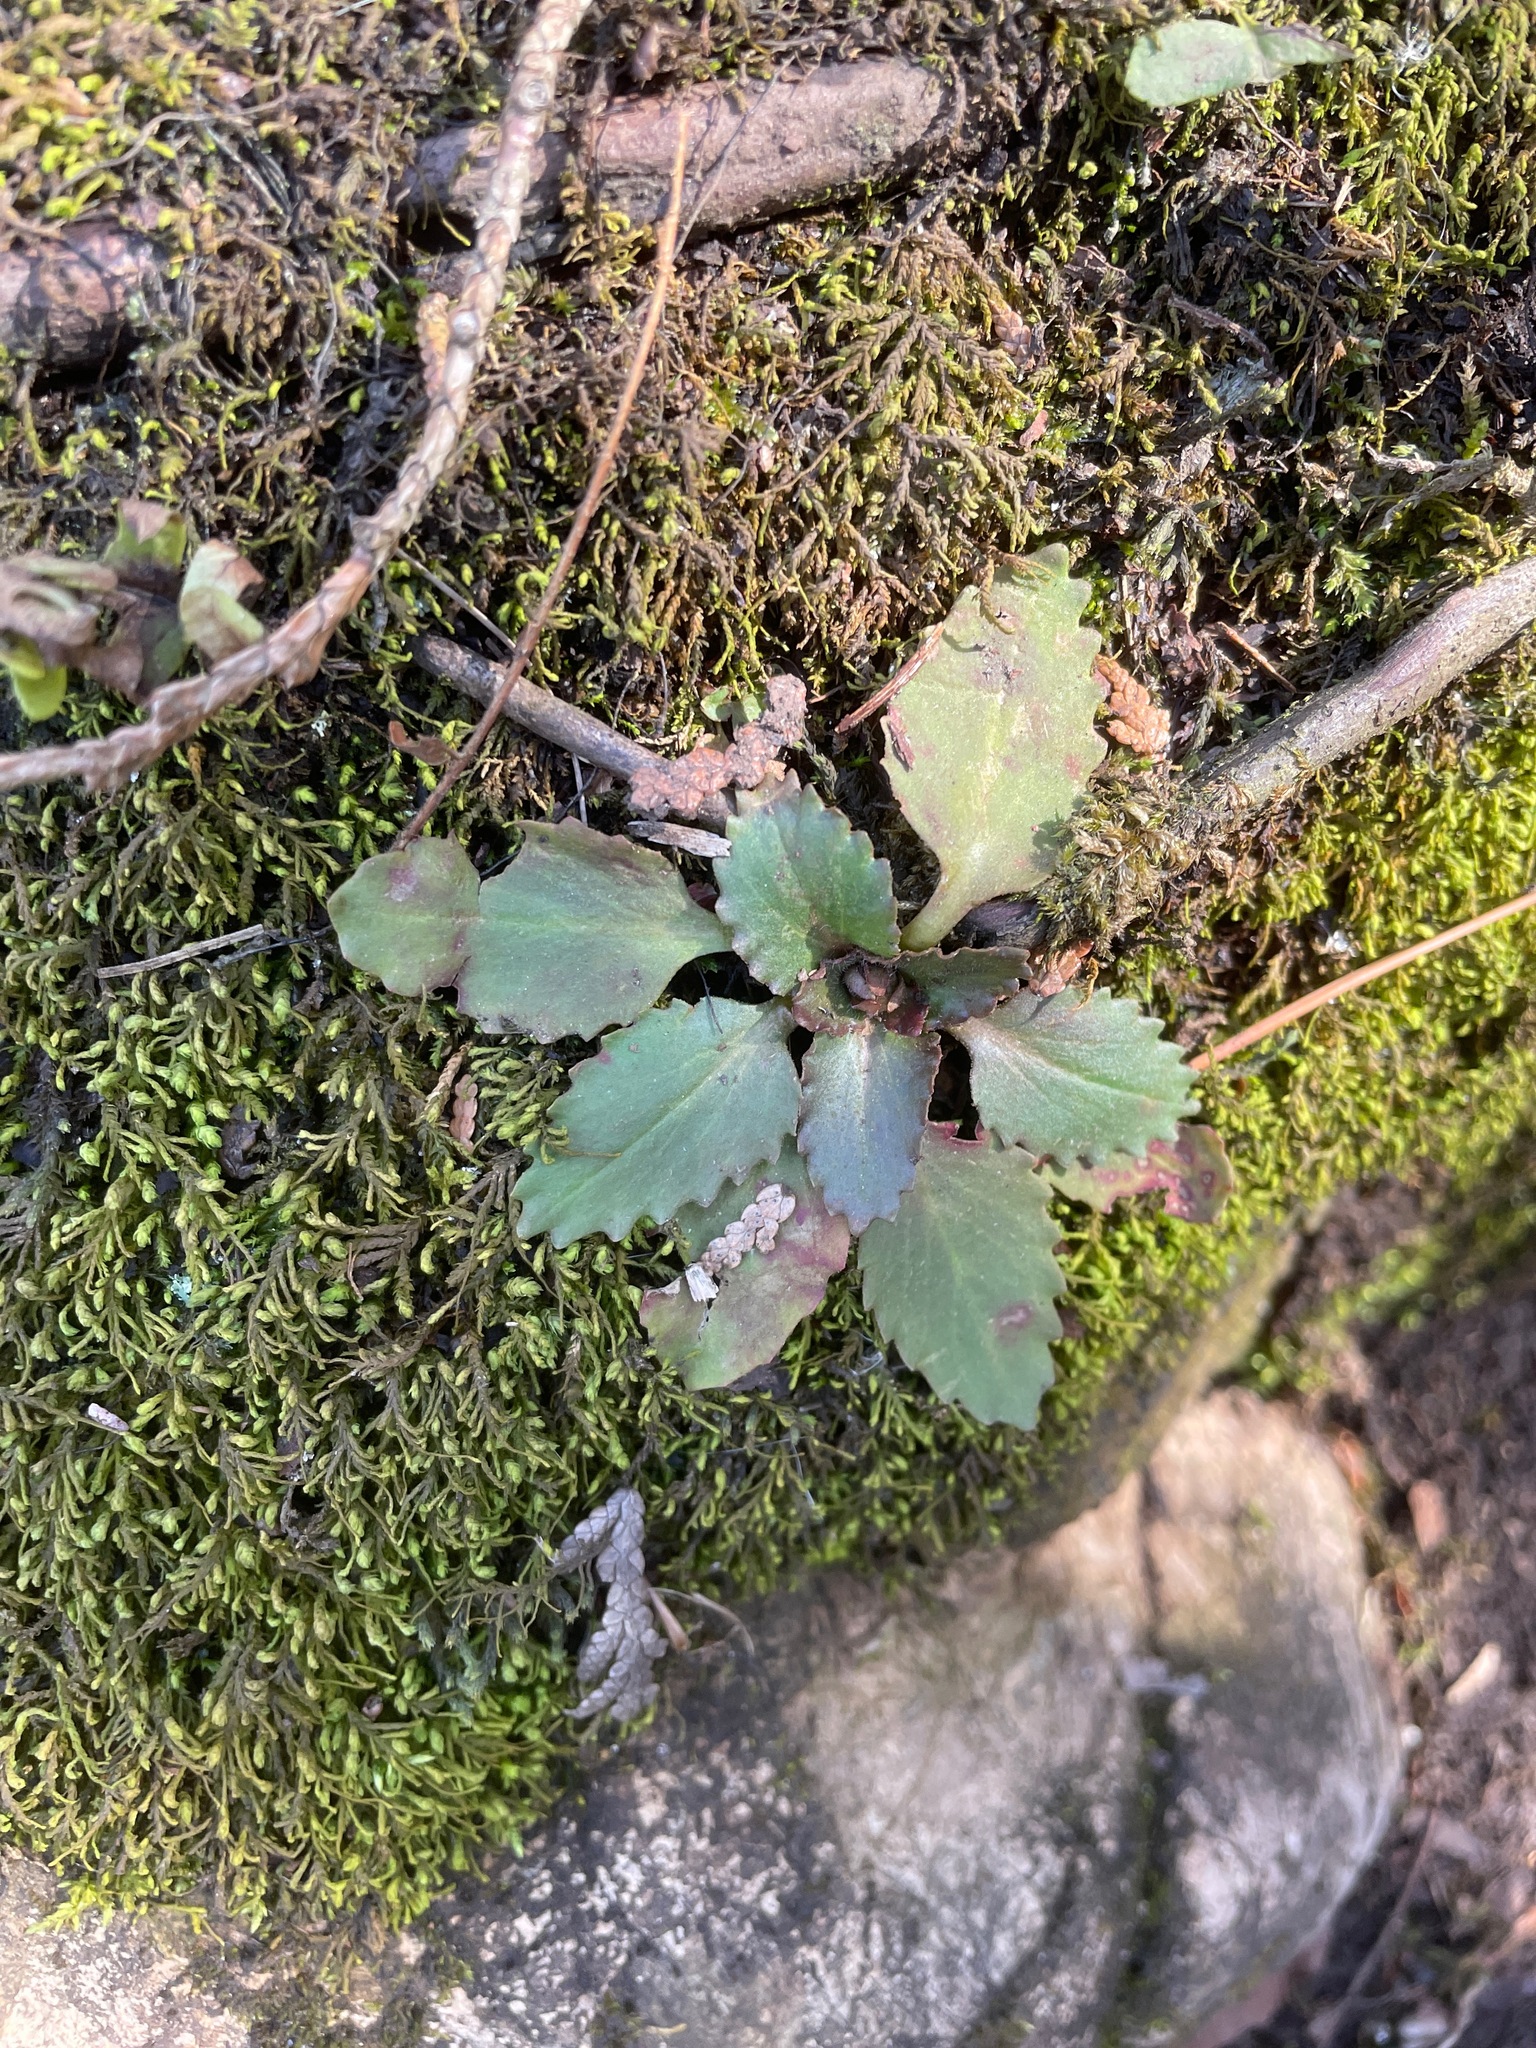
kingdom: Plantae
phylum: Tracheophyta
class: Magnoliopsida
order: Saxifragales
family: Saxifragaceae
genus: Micranthes
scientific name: Micranthes virginiensis
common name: Early saxifrage
